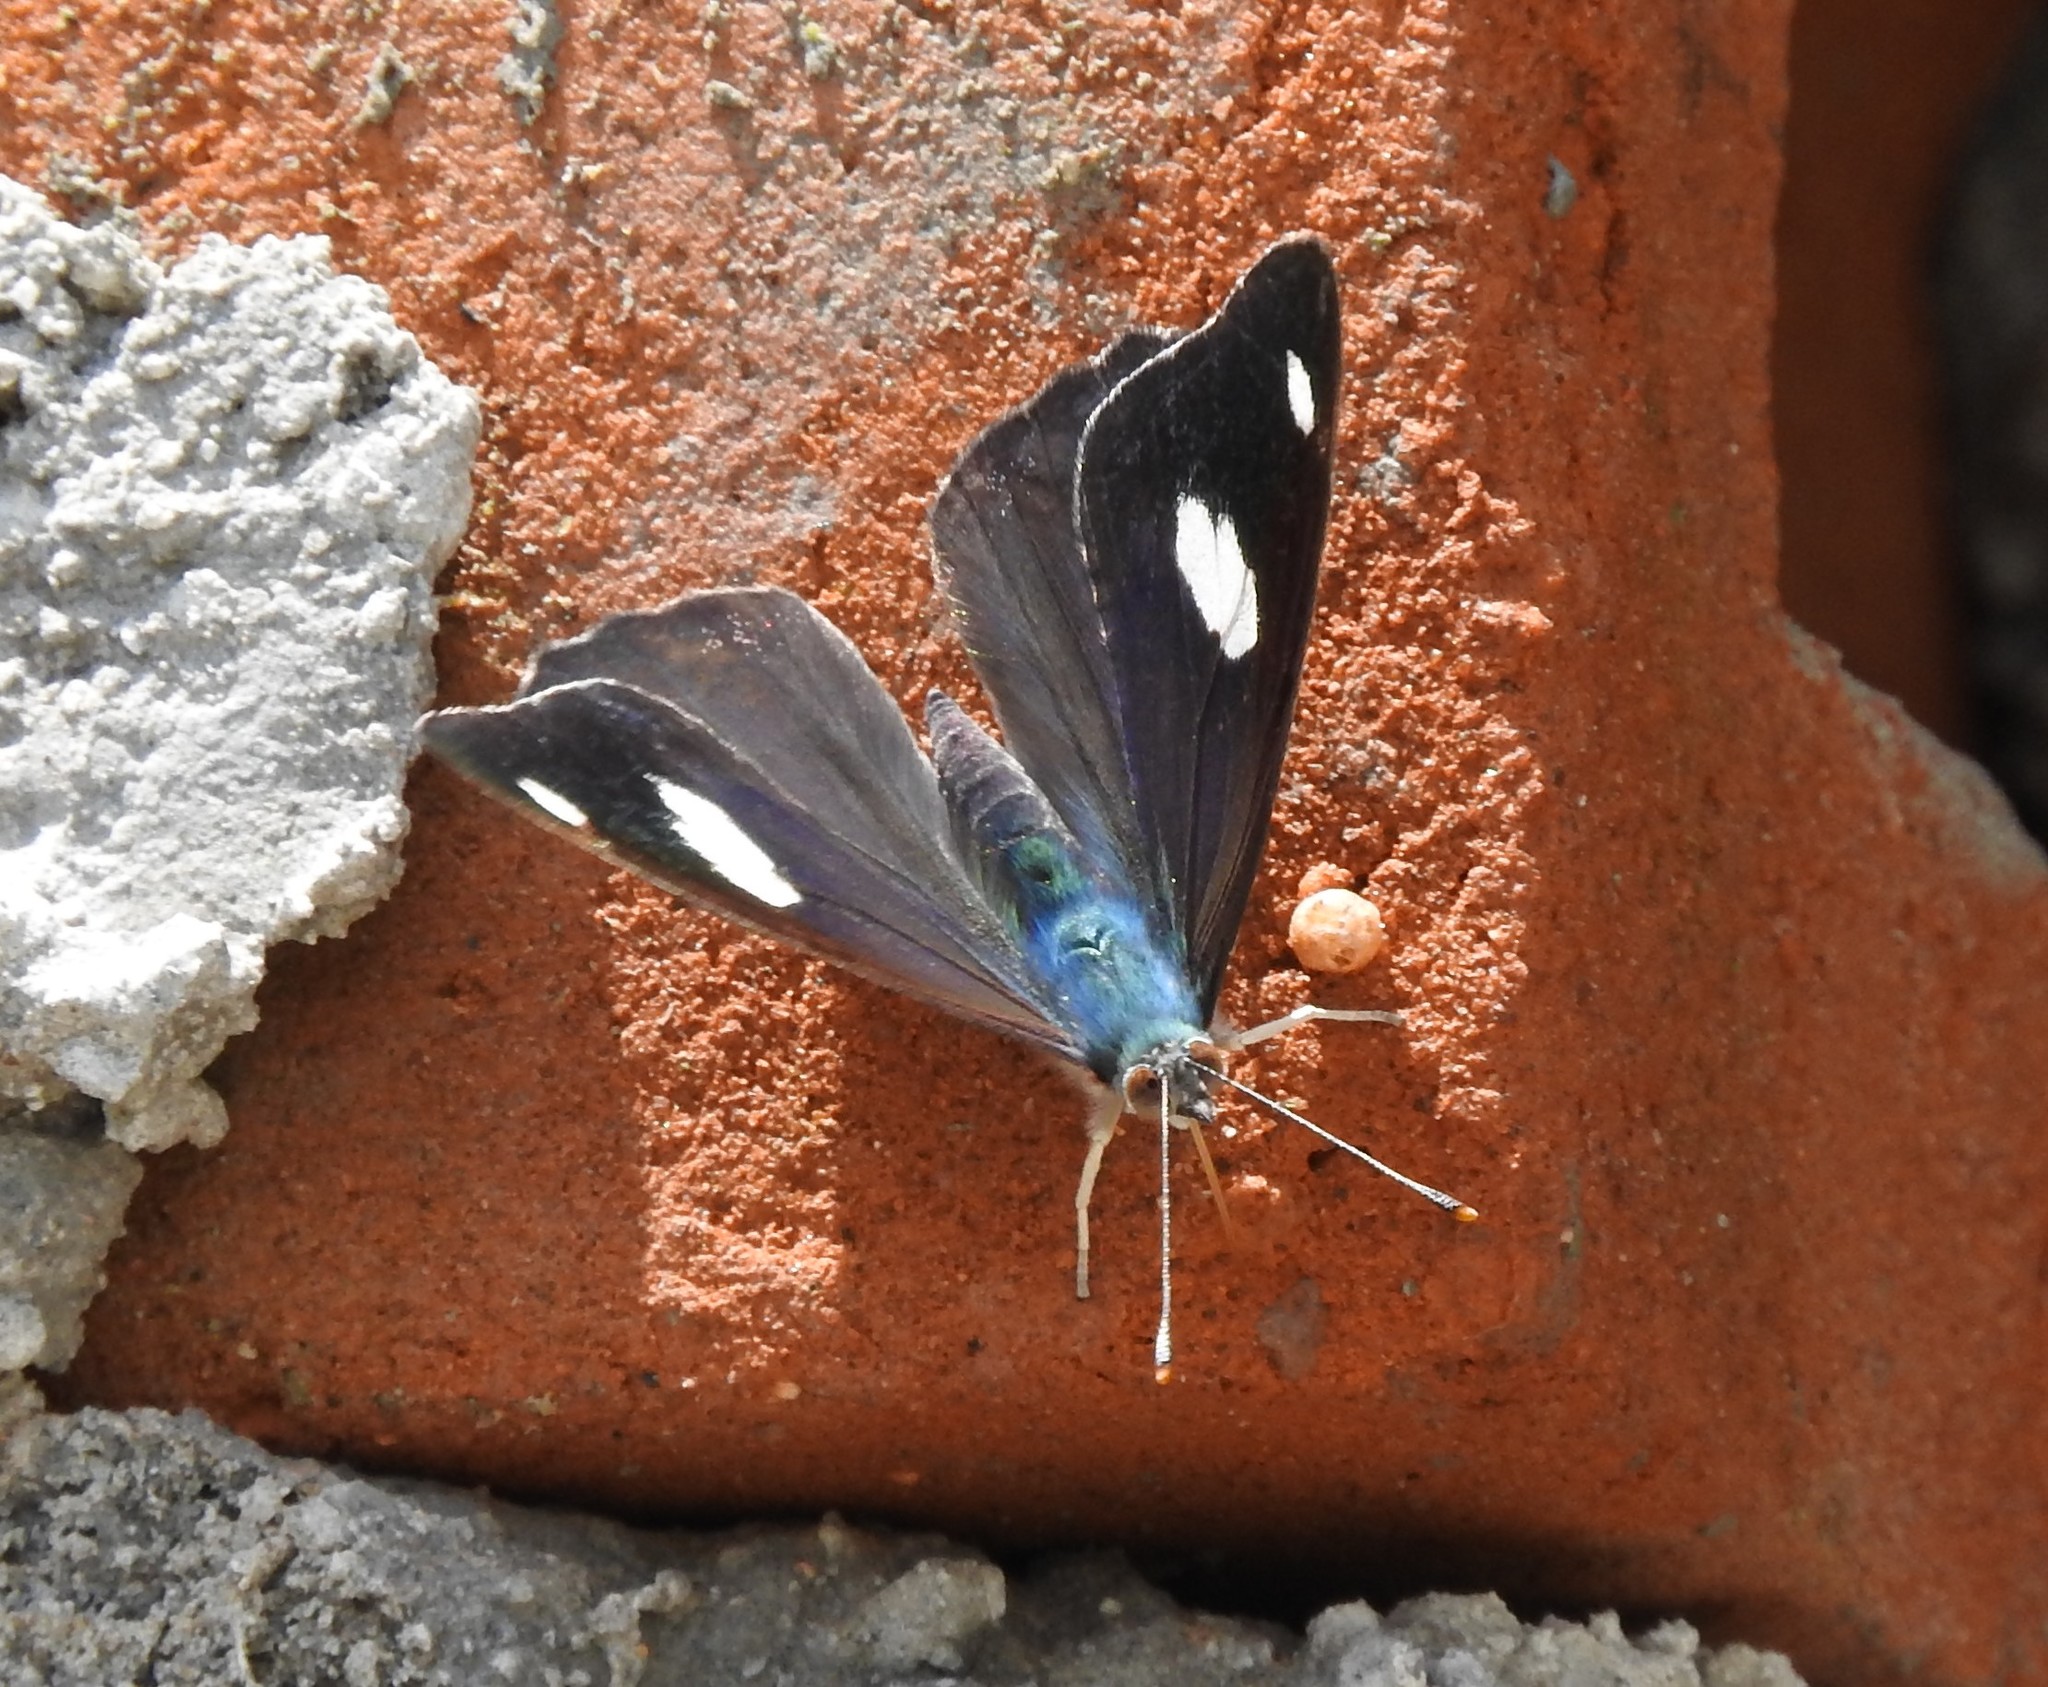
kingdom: Animalia
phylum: Arthropoda
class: Insecta
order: Lepidoptera
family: Nymphalidae
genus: Diaethria
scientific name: Diaethria
